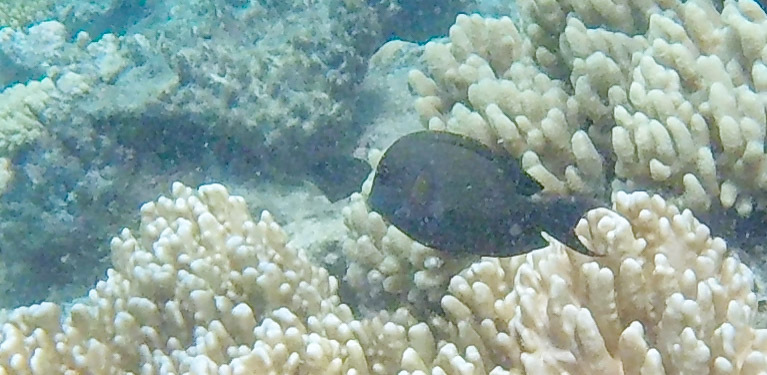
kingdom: Animalia
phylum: Chordata
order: Perciformes
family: Acanthuridae
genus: Ctenochaetus
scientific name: Ctenochaetus striatus
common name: Bristle-toothed surgeonfish
